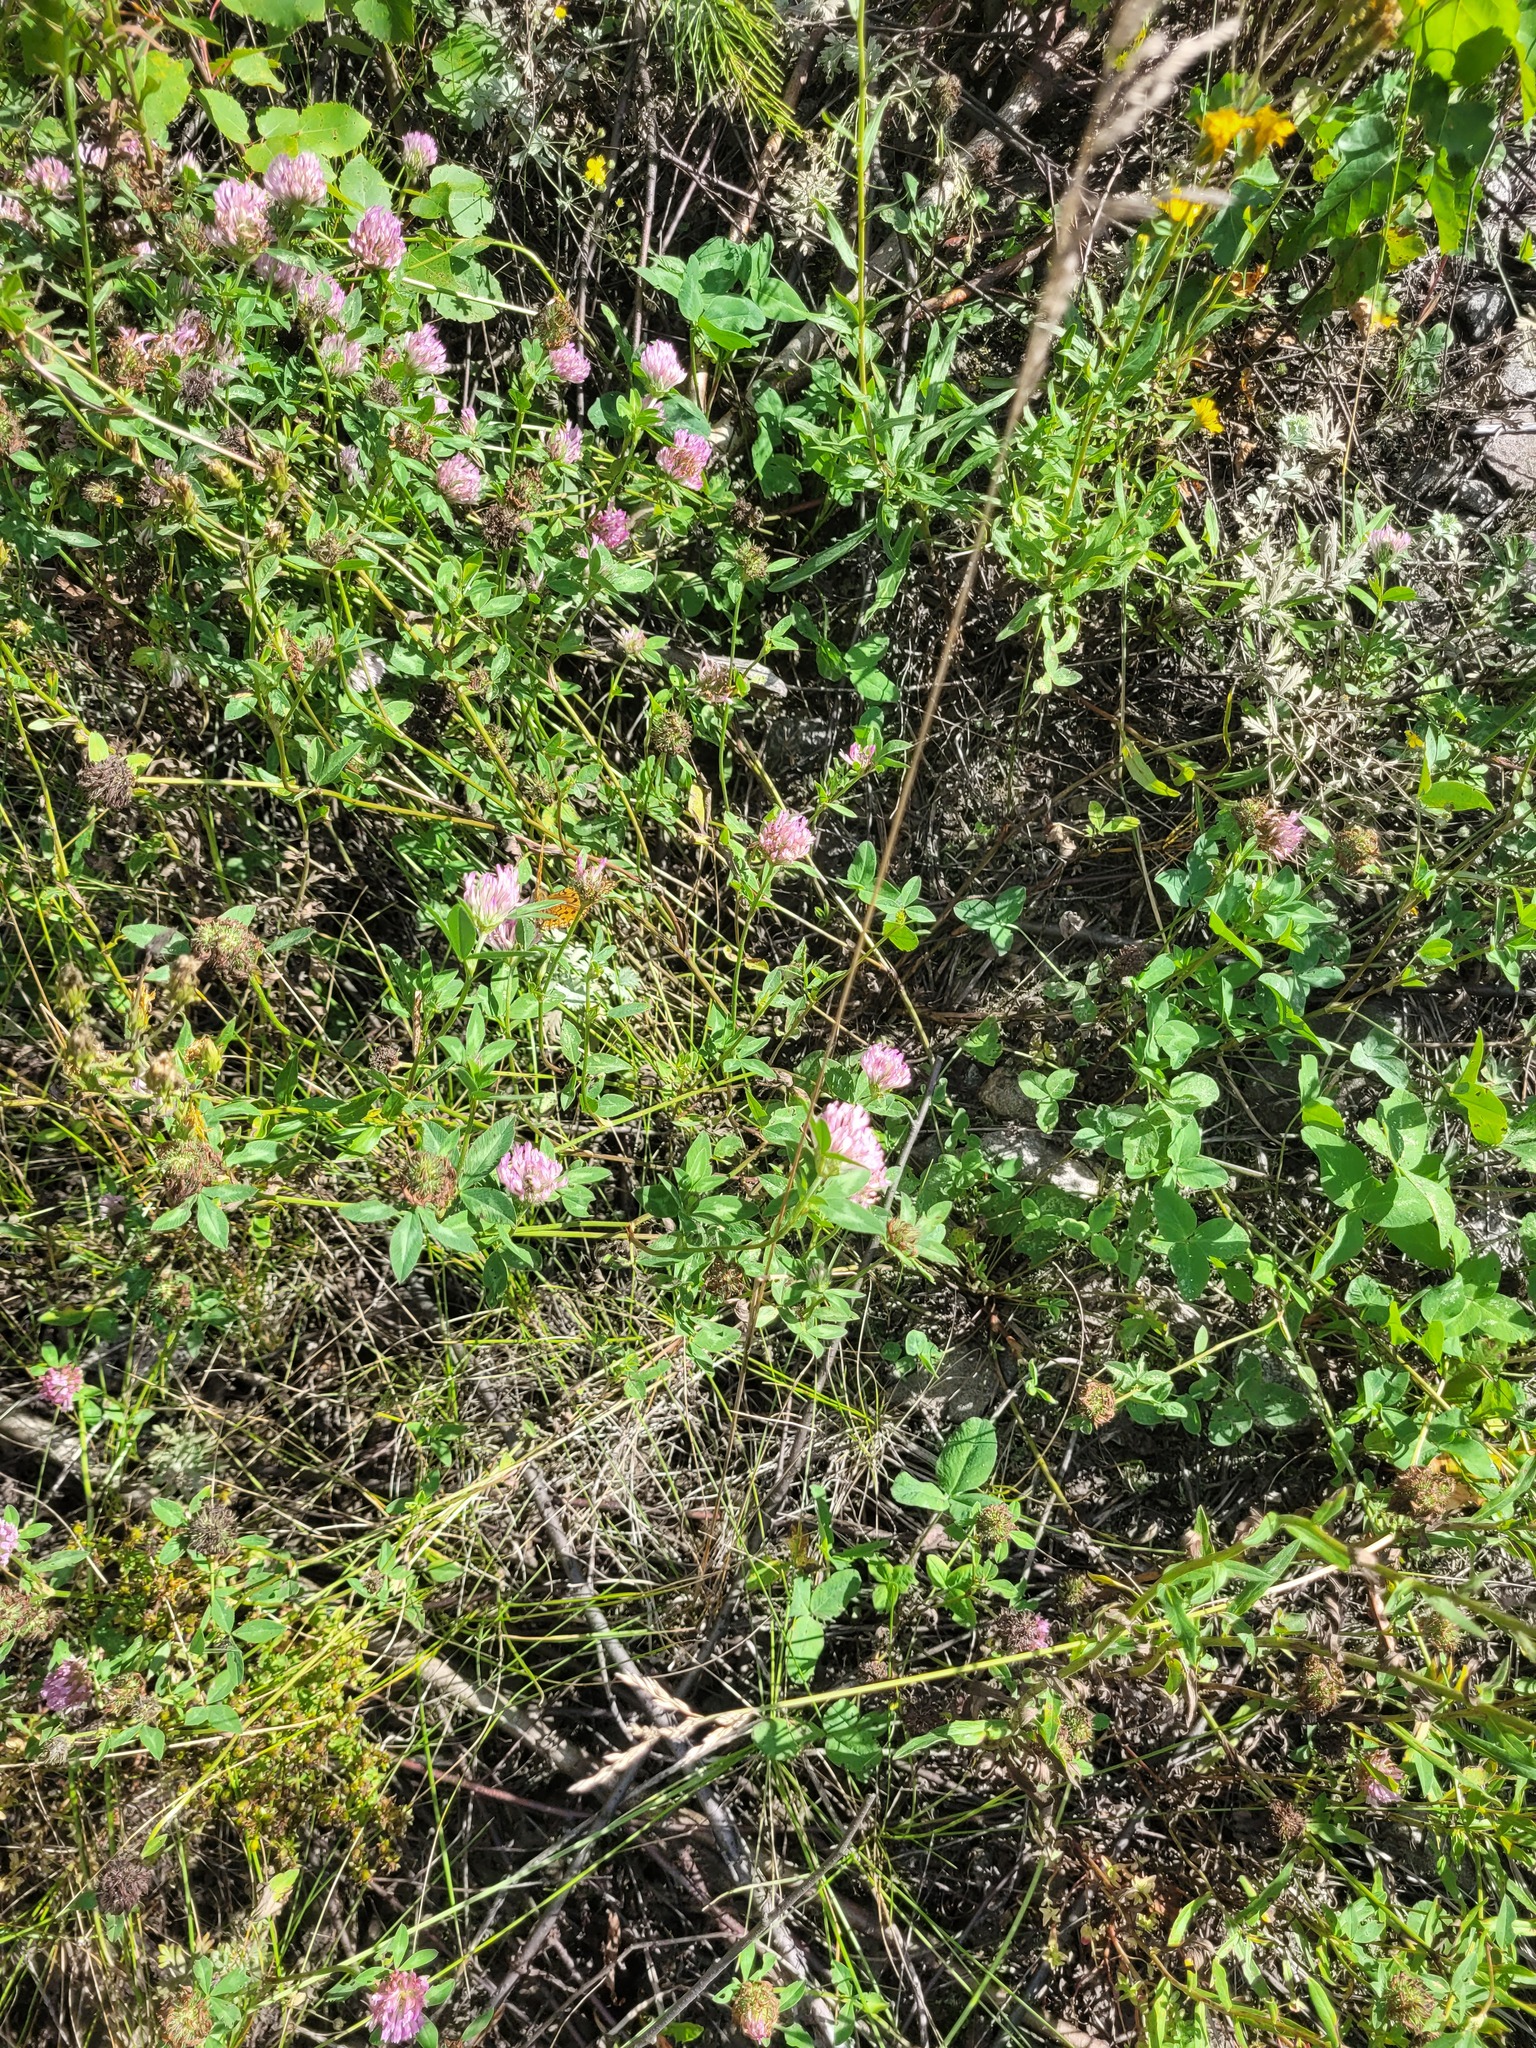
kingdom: Plantae
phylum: Tracheophyta
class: Magnoliopsida
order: Fabales
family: Fabaceae
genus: Trifolium
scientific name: Trifolium pratense
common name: Red clover
